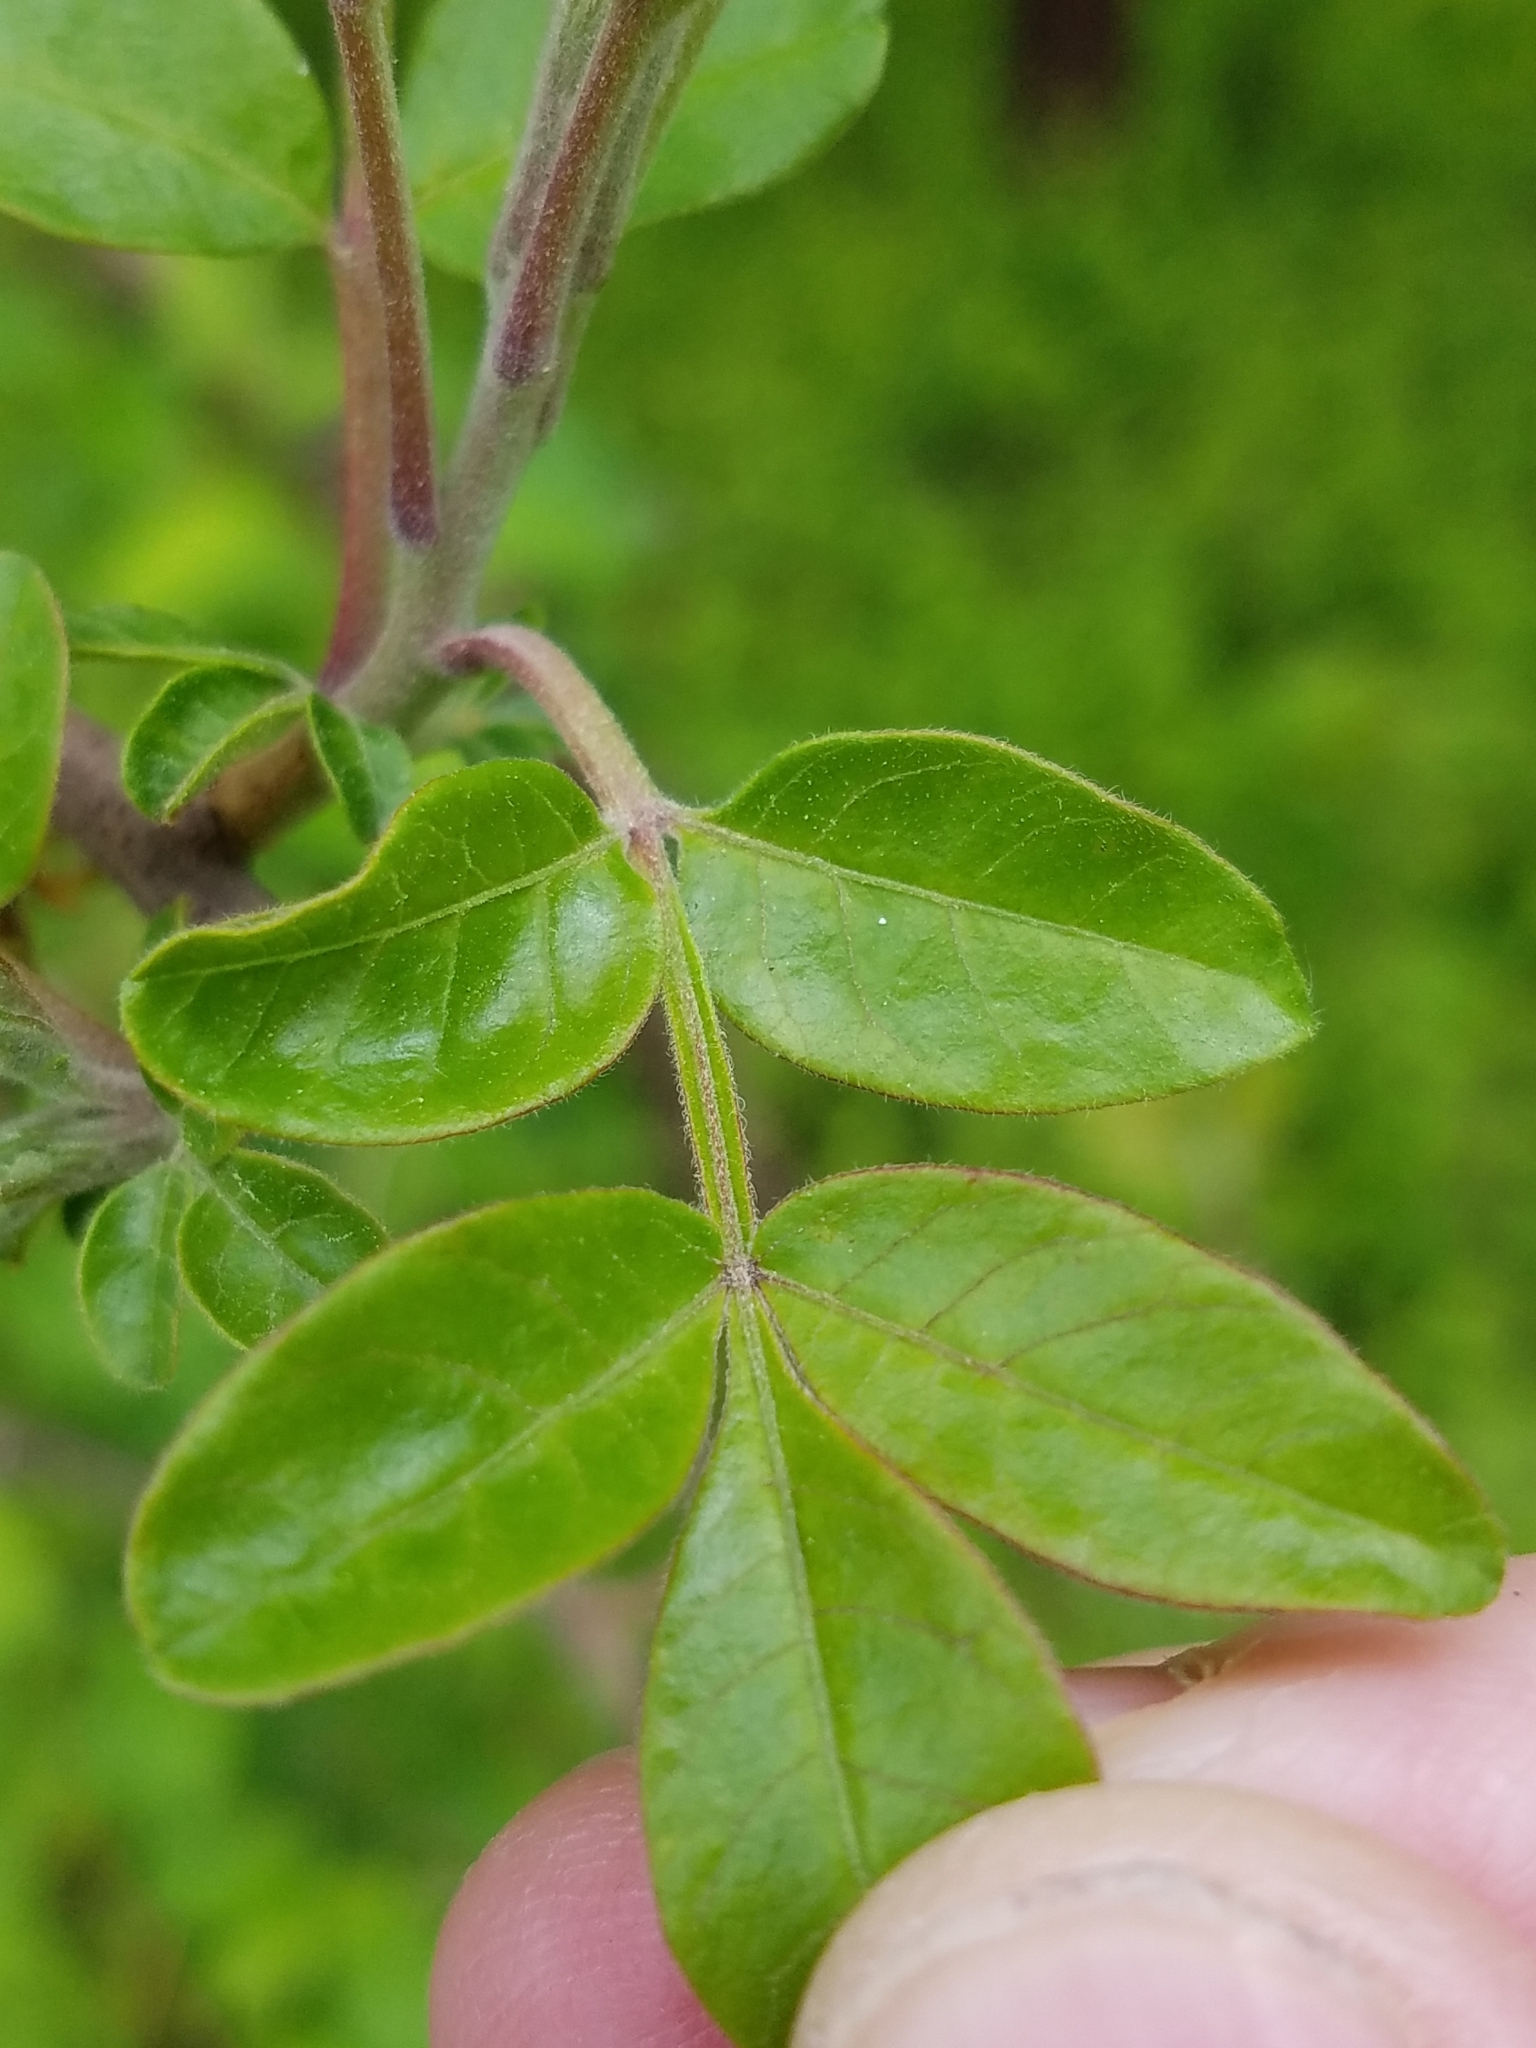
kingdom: Plantae
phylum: Tracheophyta
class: Magnoliopsida
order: Sapindales
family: Anacardiaceae
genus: Rhus
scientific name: Rhus copallina
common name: Shining sumac
